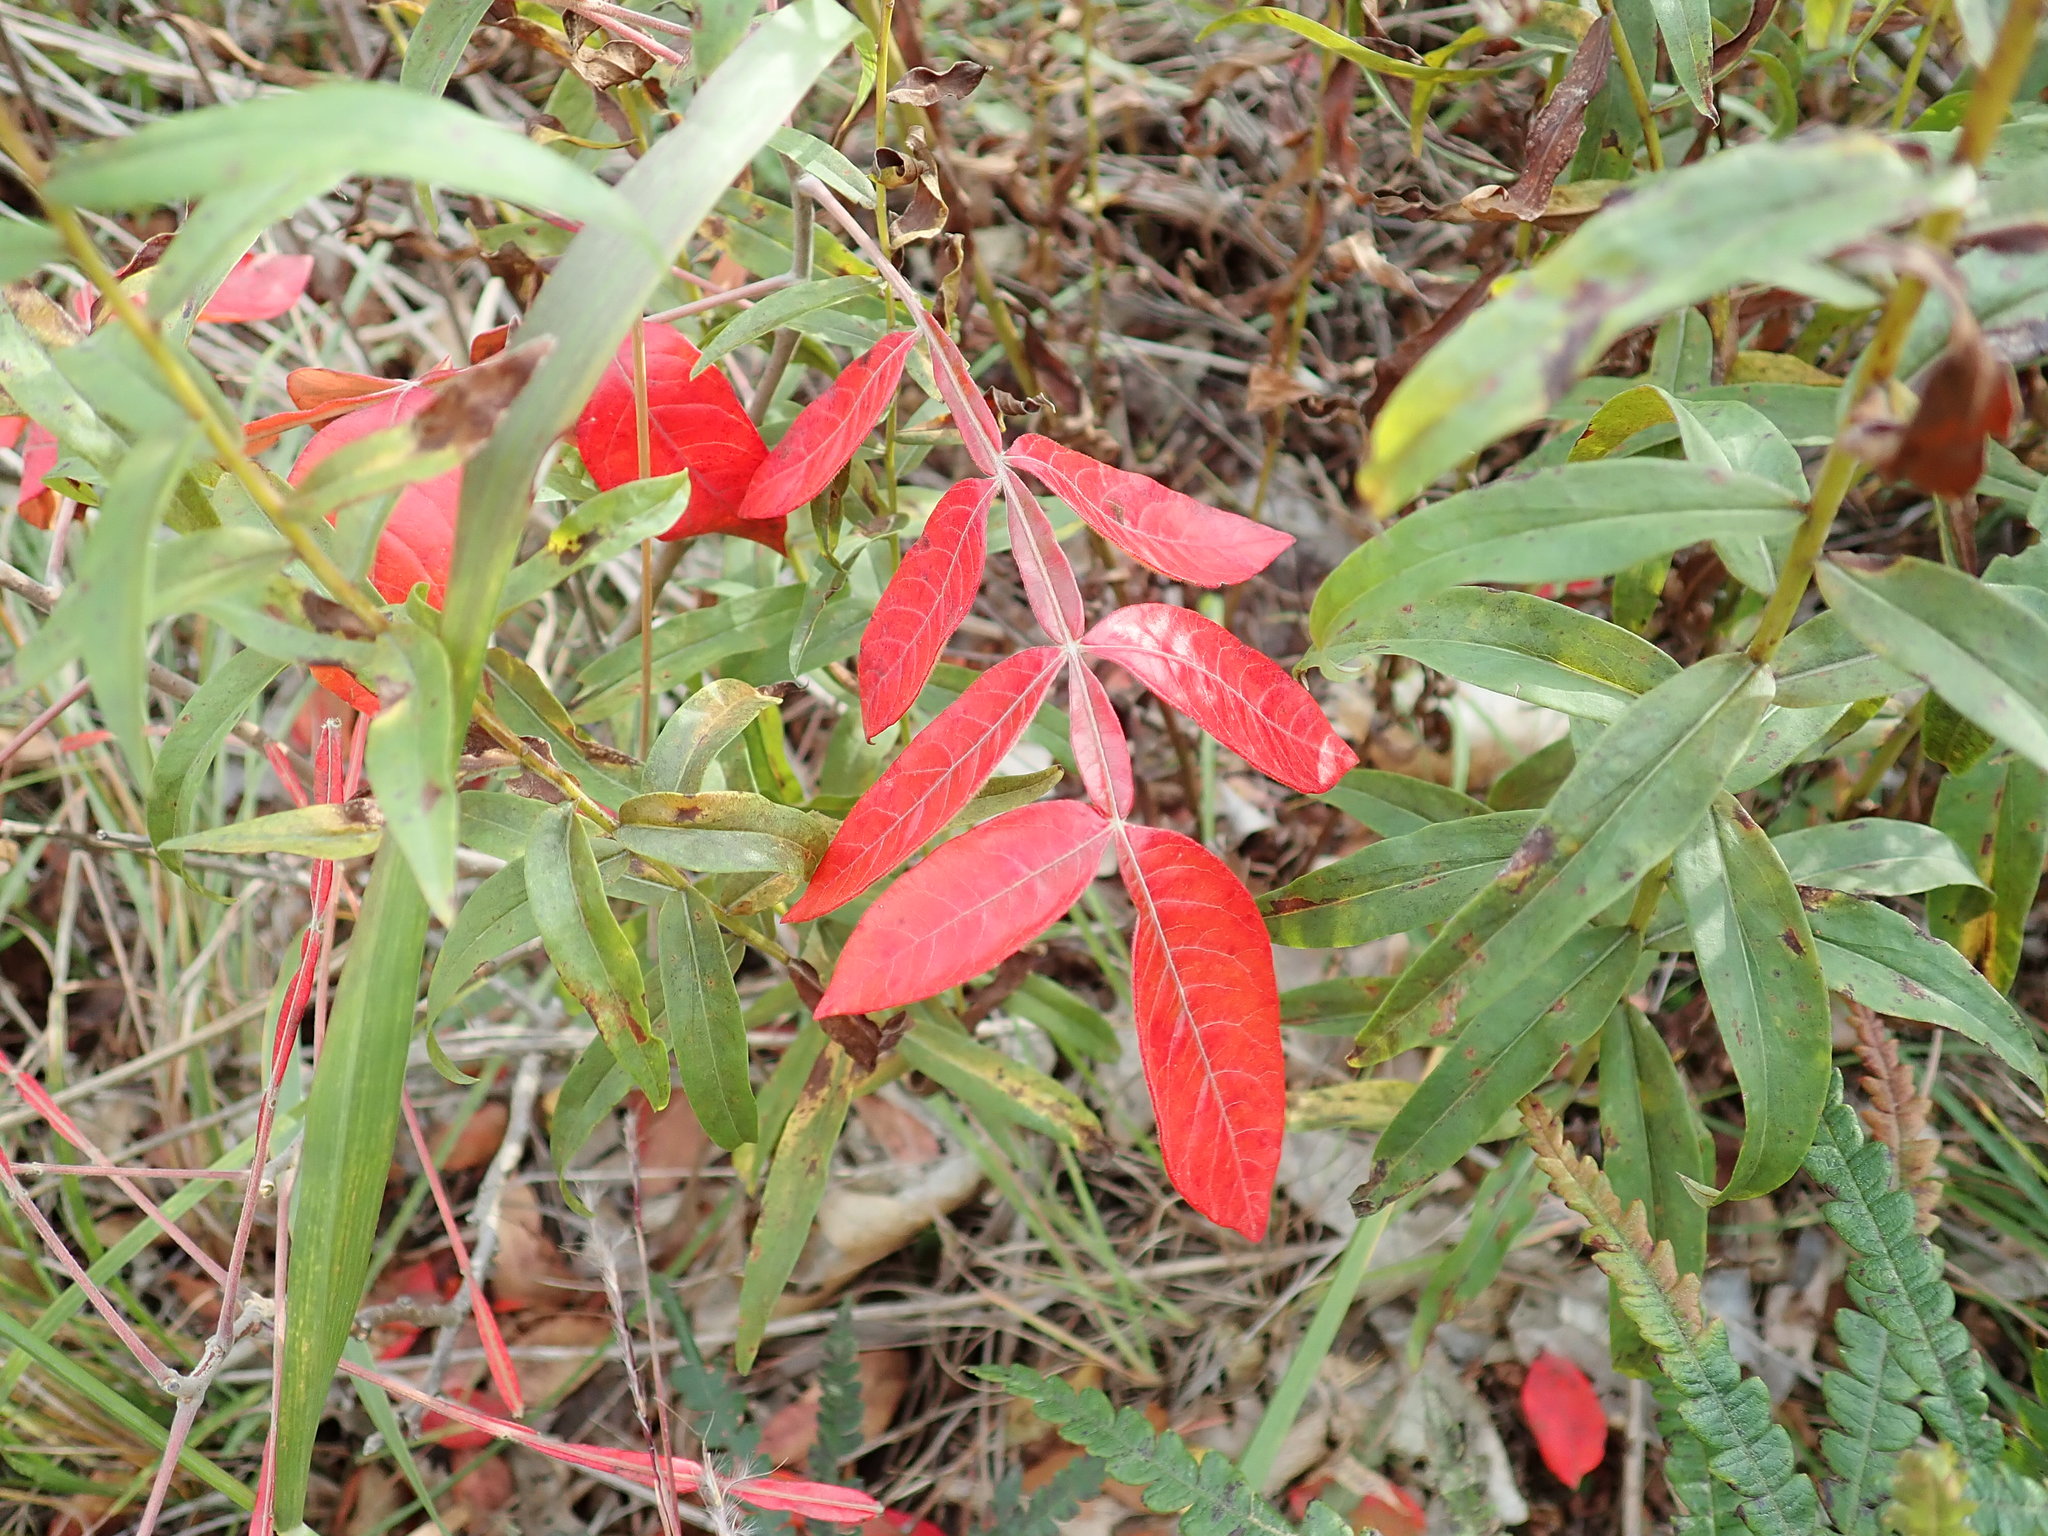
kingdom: Plantae
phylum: Tracheophyta
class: Magnoliopsida
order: Sapindales
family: Anacardiaceae
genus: Rhus
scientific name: Rhus copallina
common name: Shining sumac
